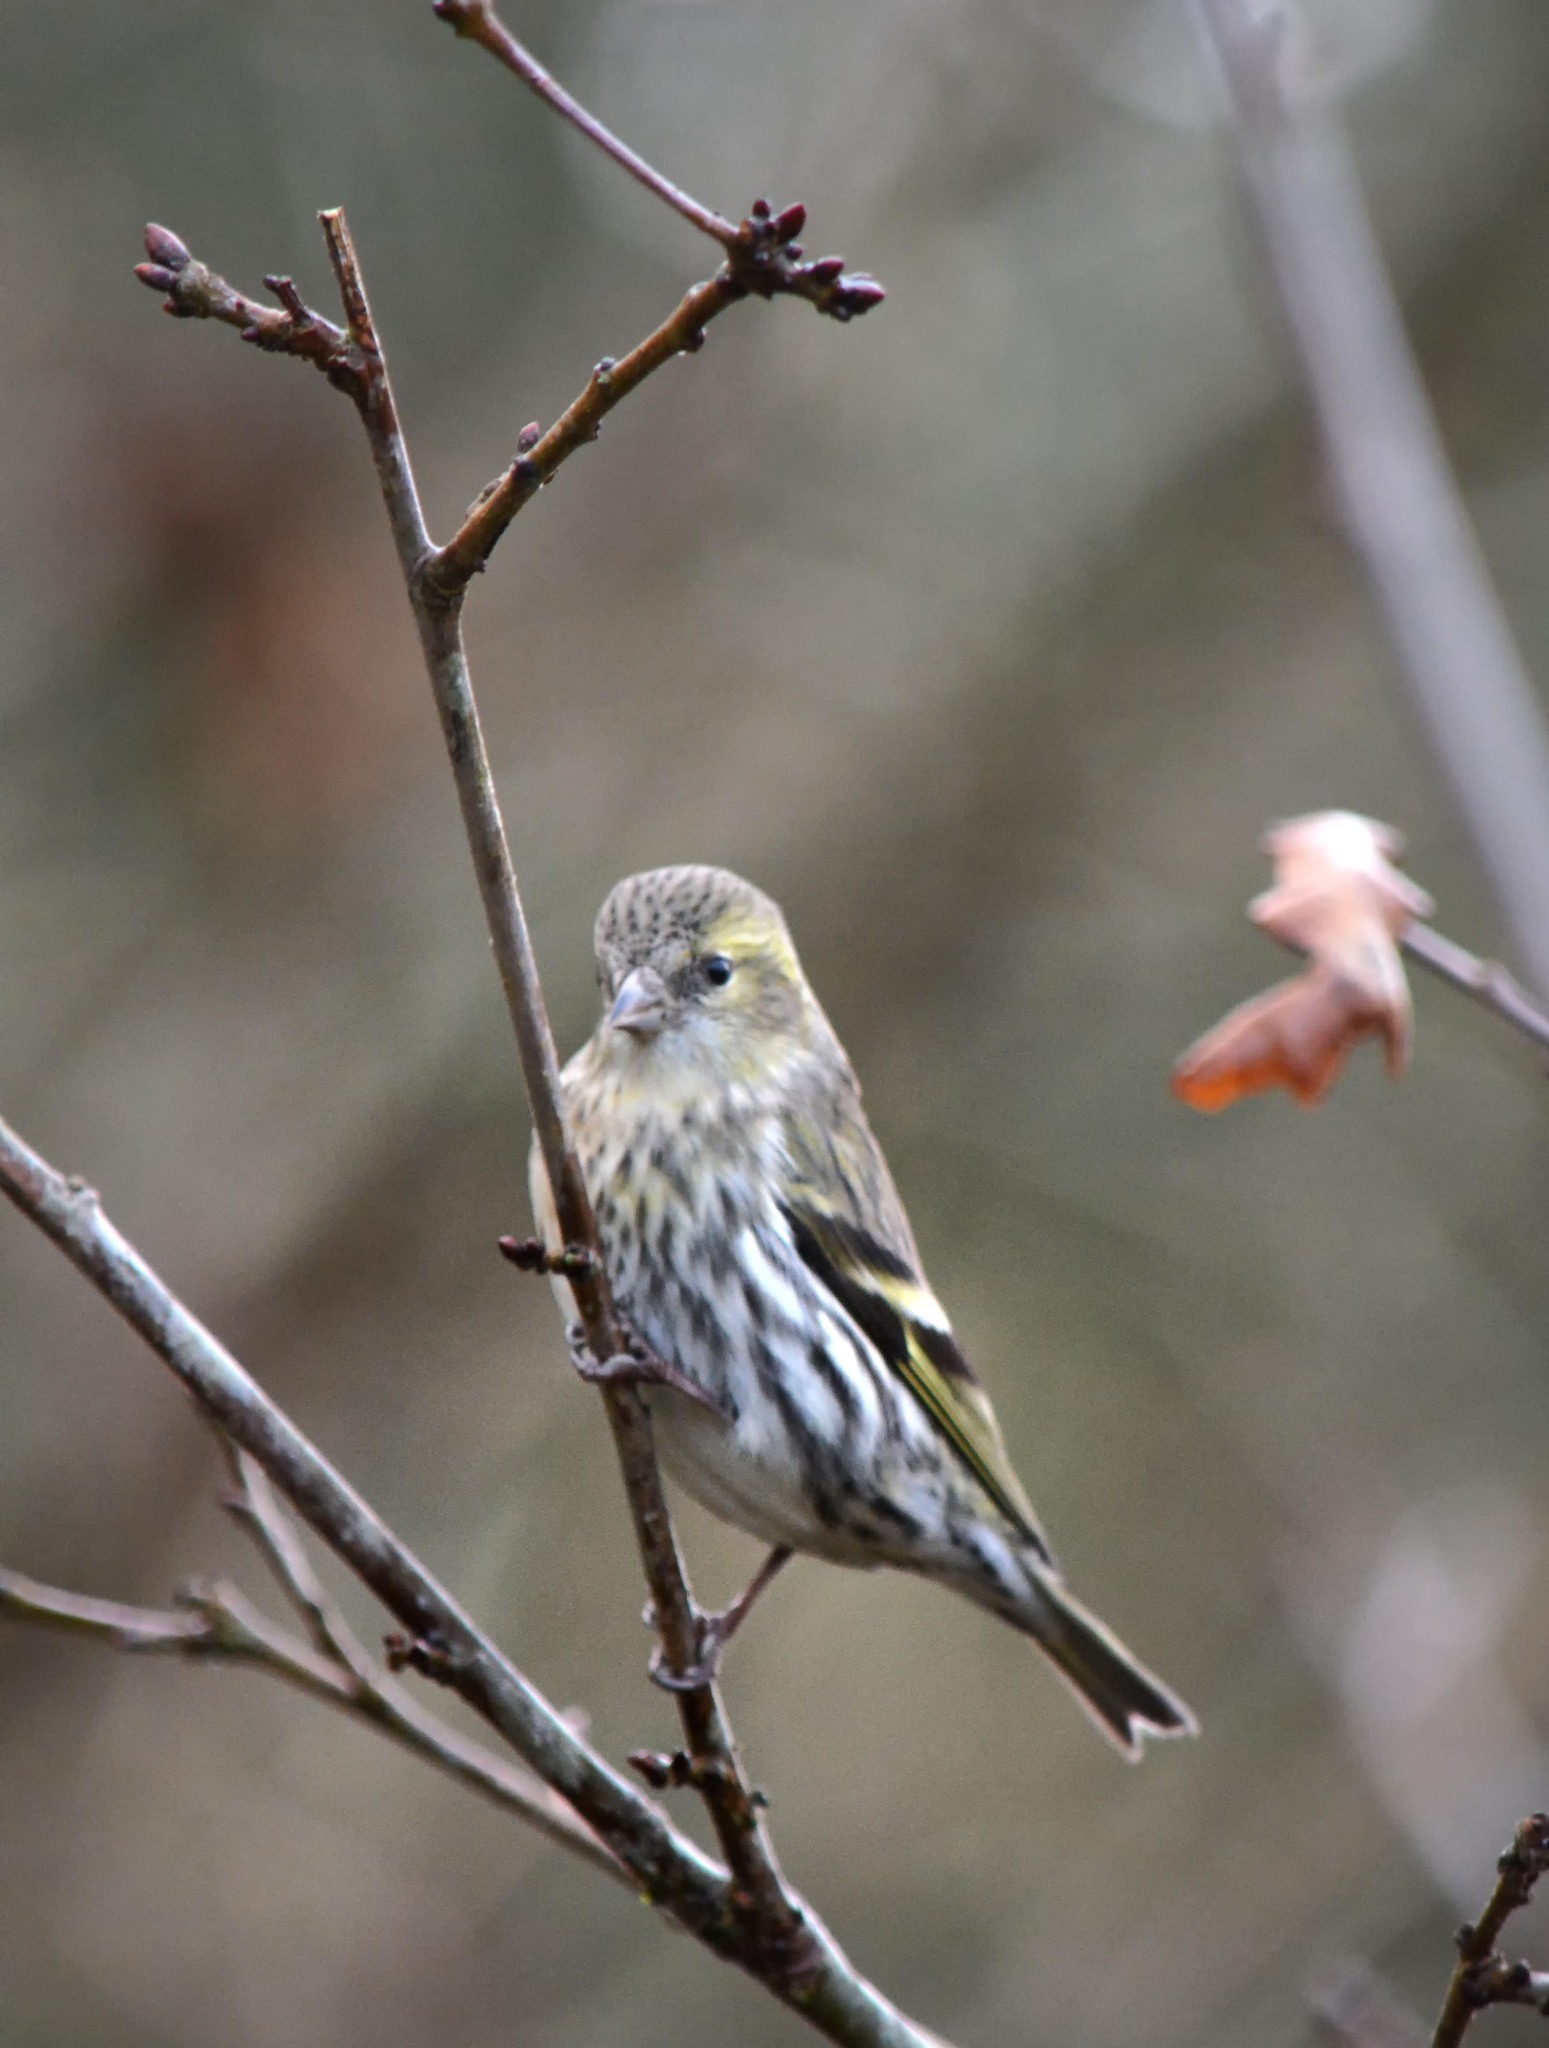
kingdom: Animalia
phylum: Chordata
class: Aves
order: Passeriformes
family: Fringillidae
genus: Spinus
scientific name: Spinus spinus
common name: Eurasian siskin
